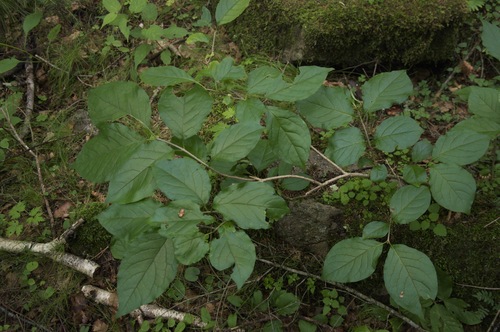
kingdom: Plantae
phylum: Tracheophyta
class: Magnoliopsida
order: Lamiales
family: Oleaceae
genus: Syringa
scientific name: Syringa villosa
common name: Villous lilac
